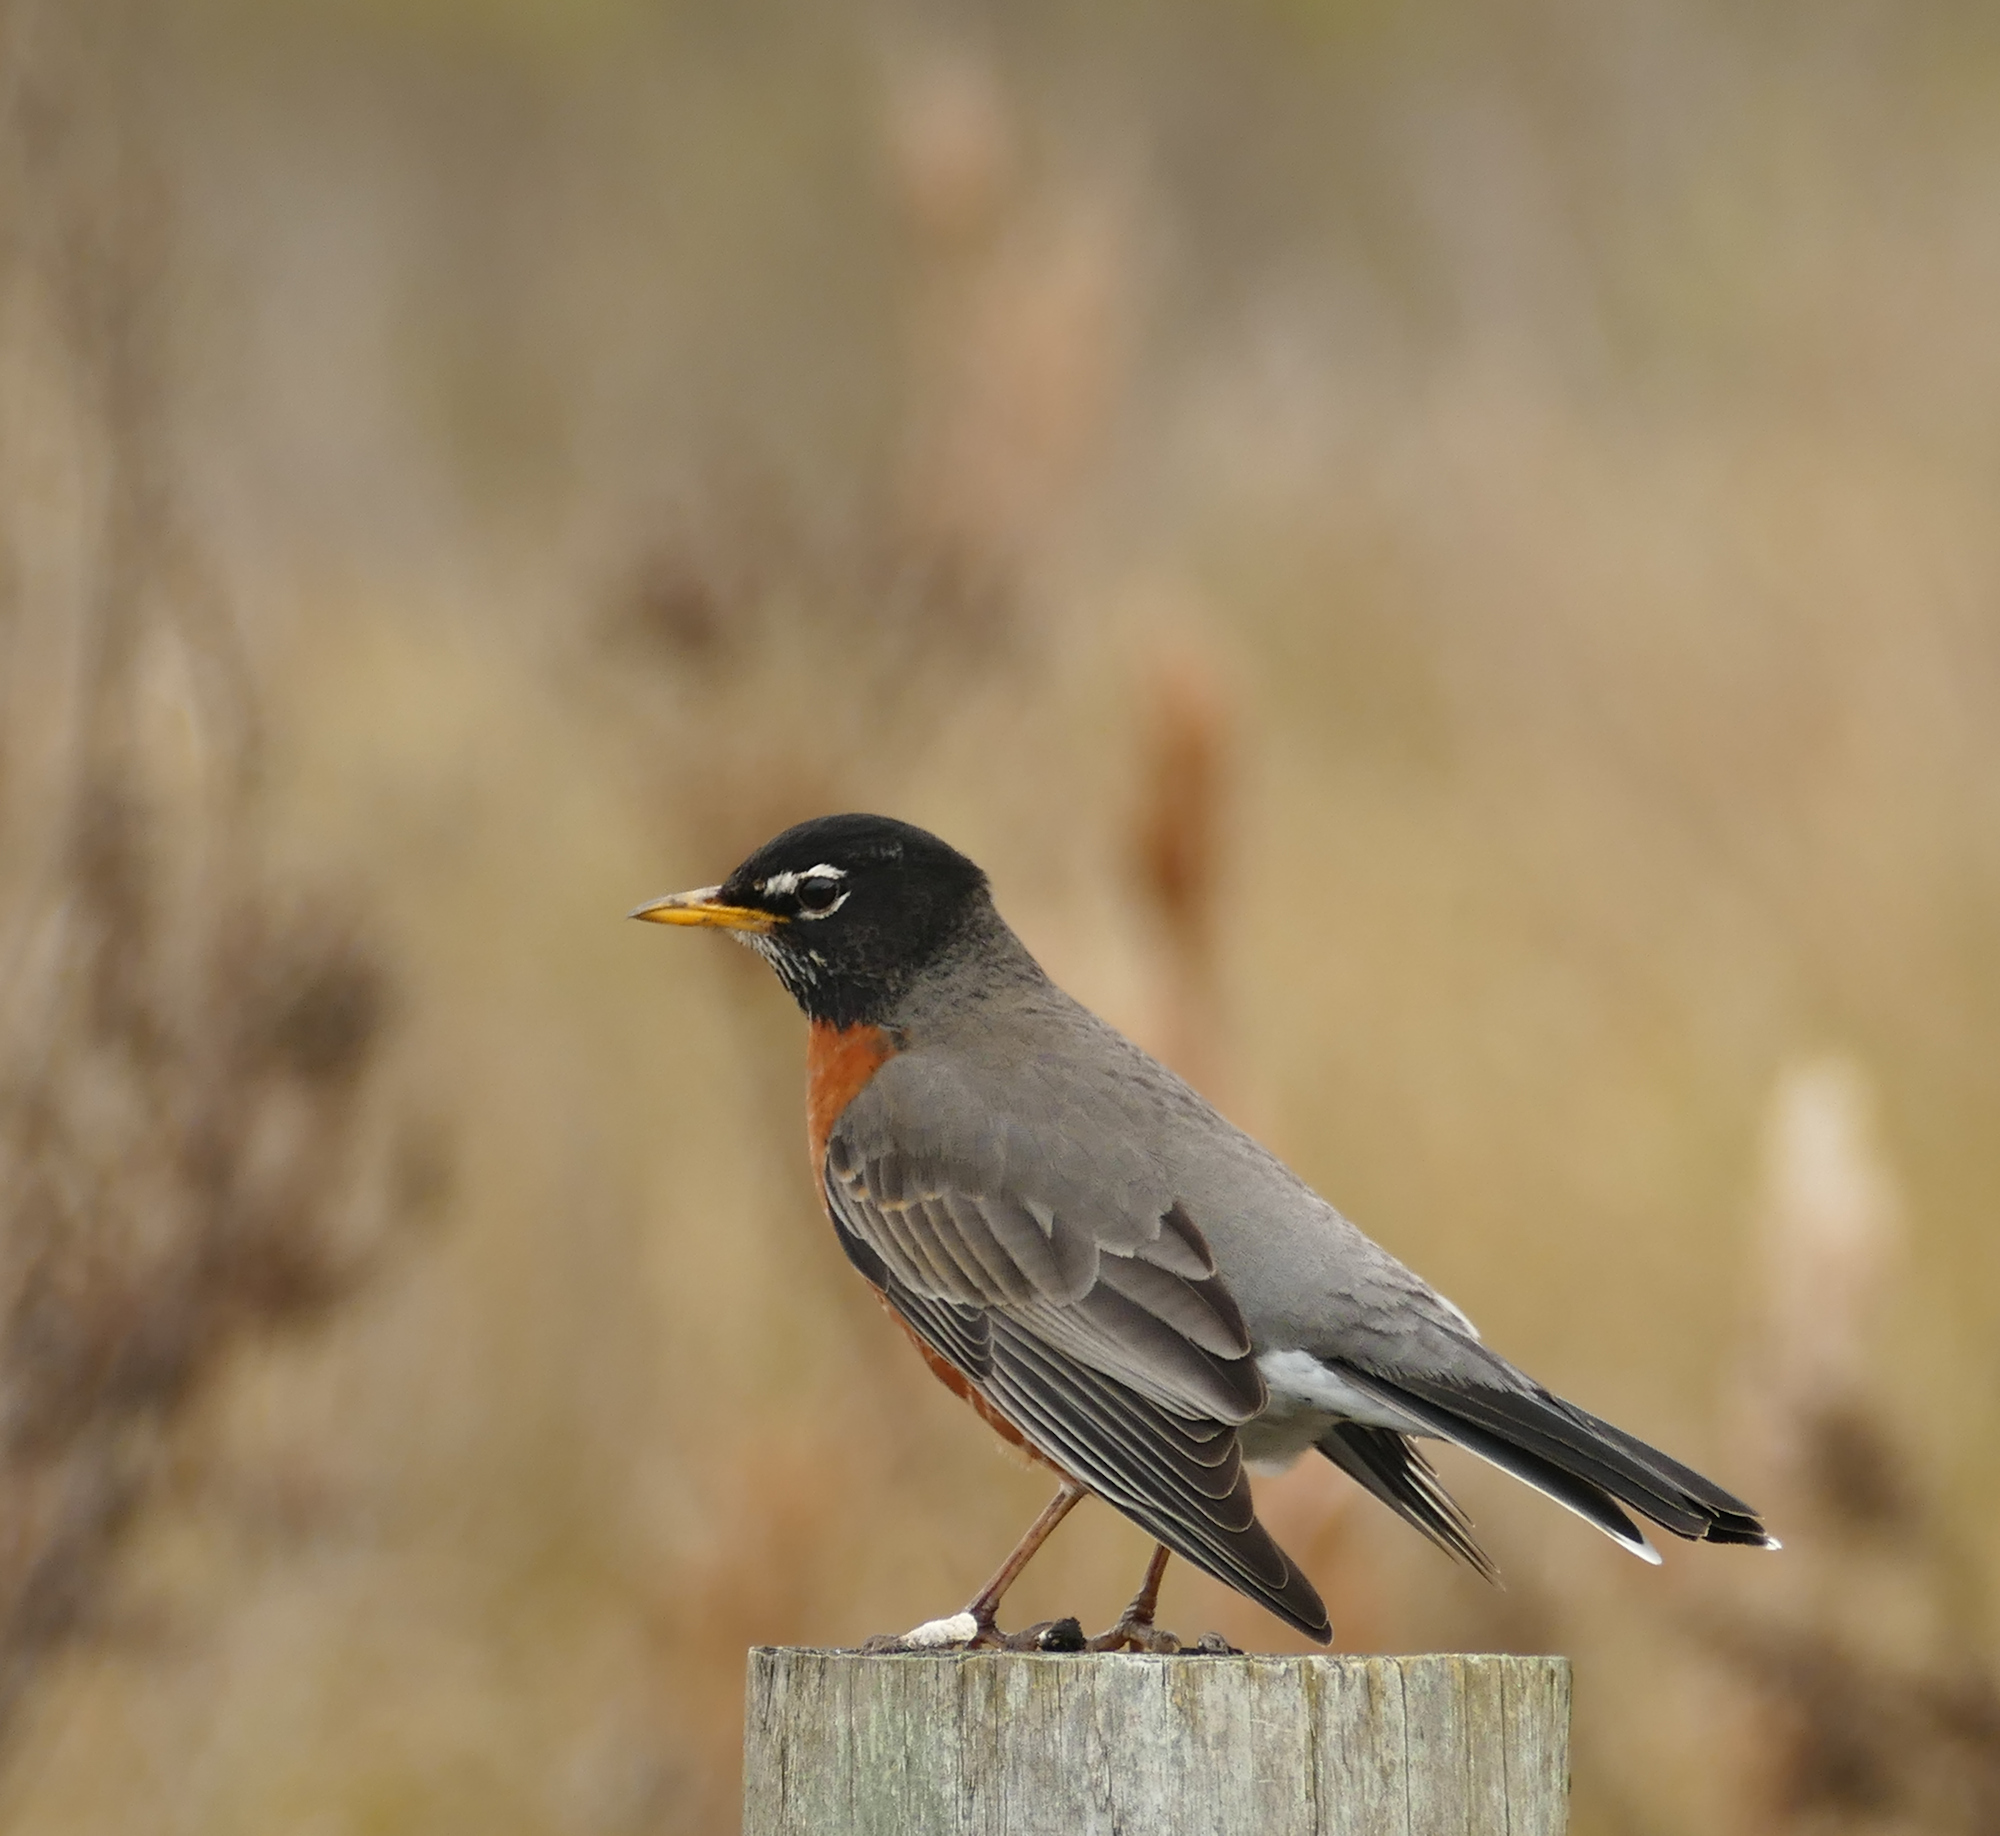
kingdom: Animalia
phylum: Chordata
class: Aves
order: Passeriformes
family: Turdidae
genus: Turdus
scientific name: Turdus migratorius
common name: American robin
